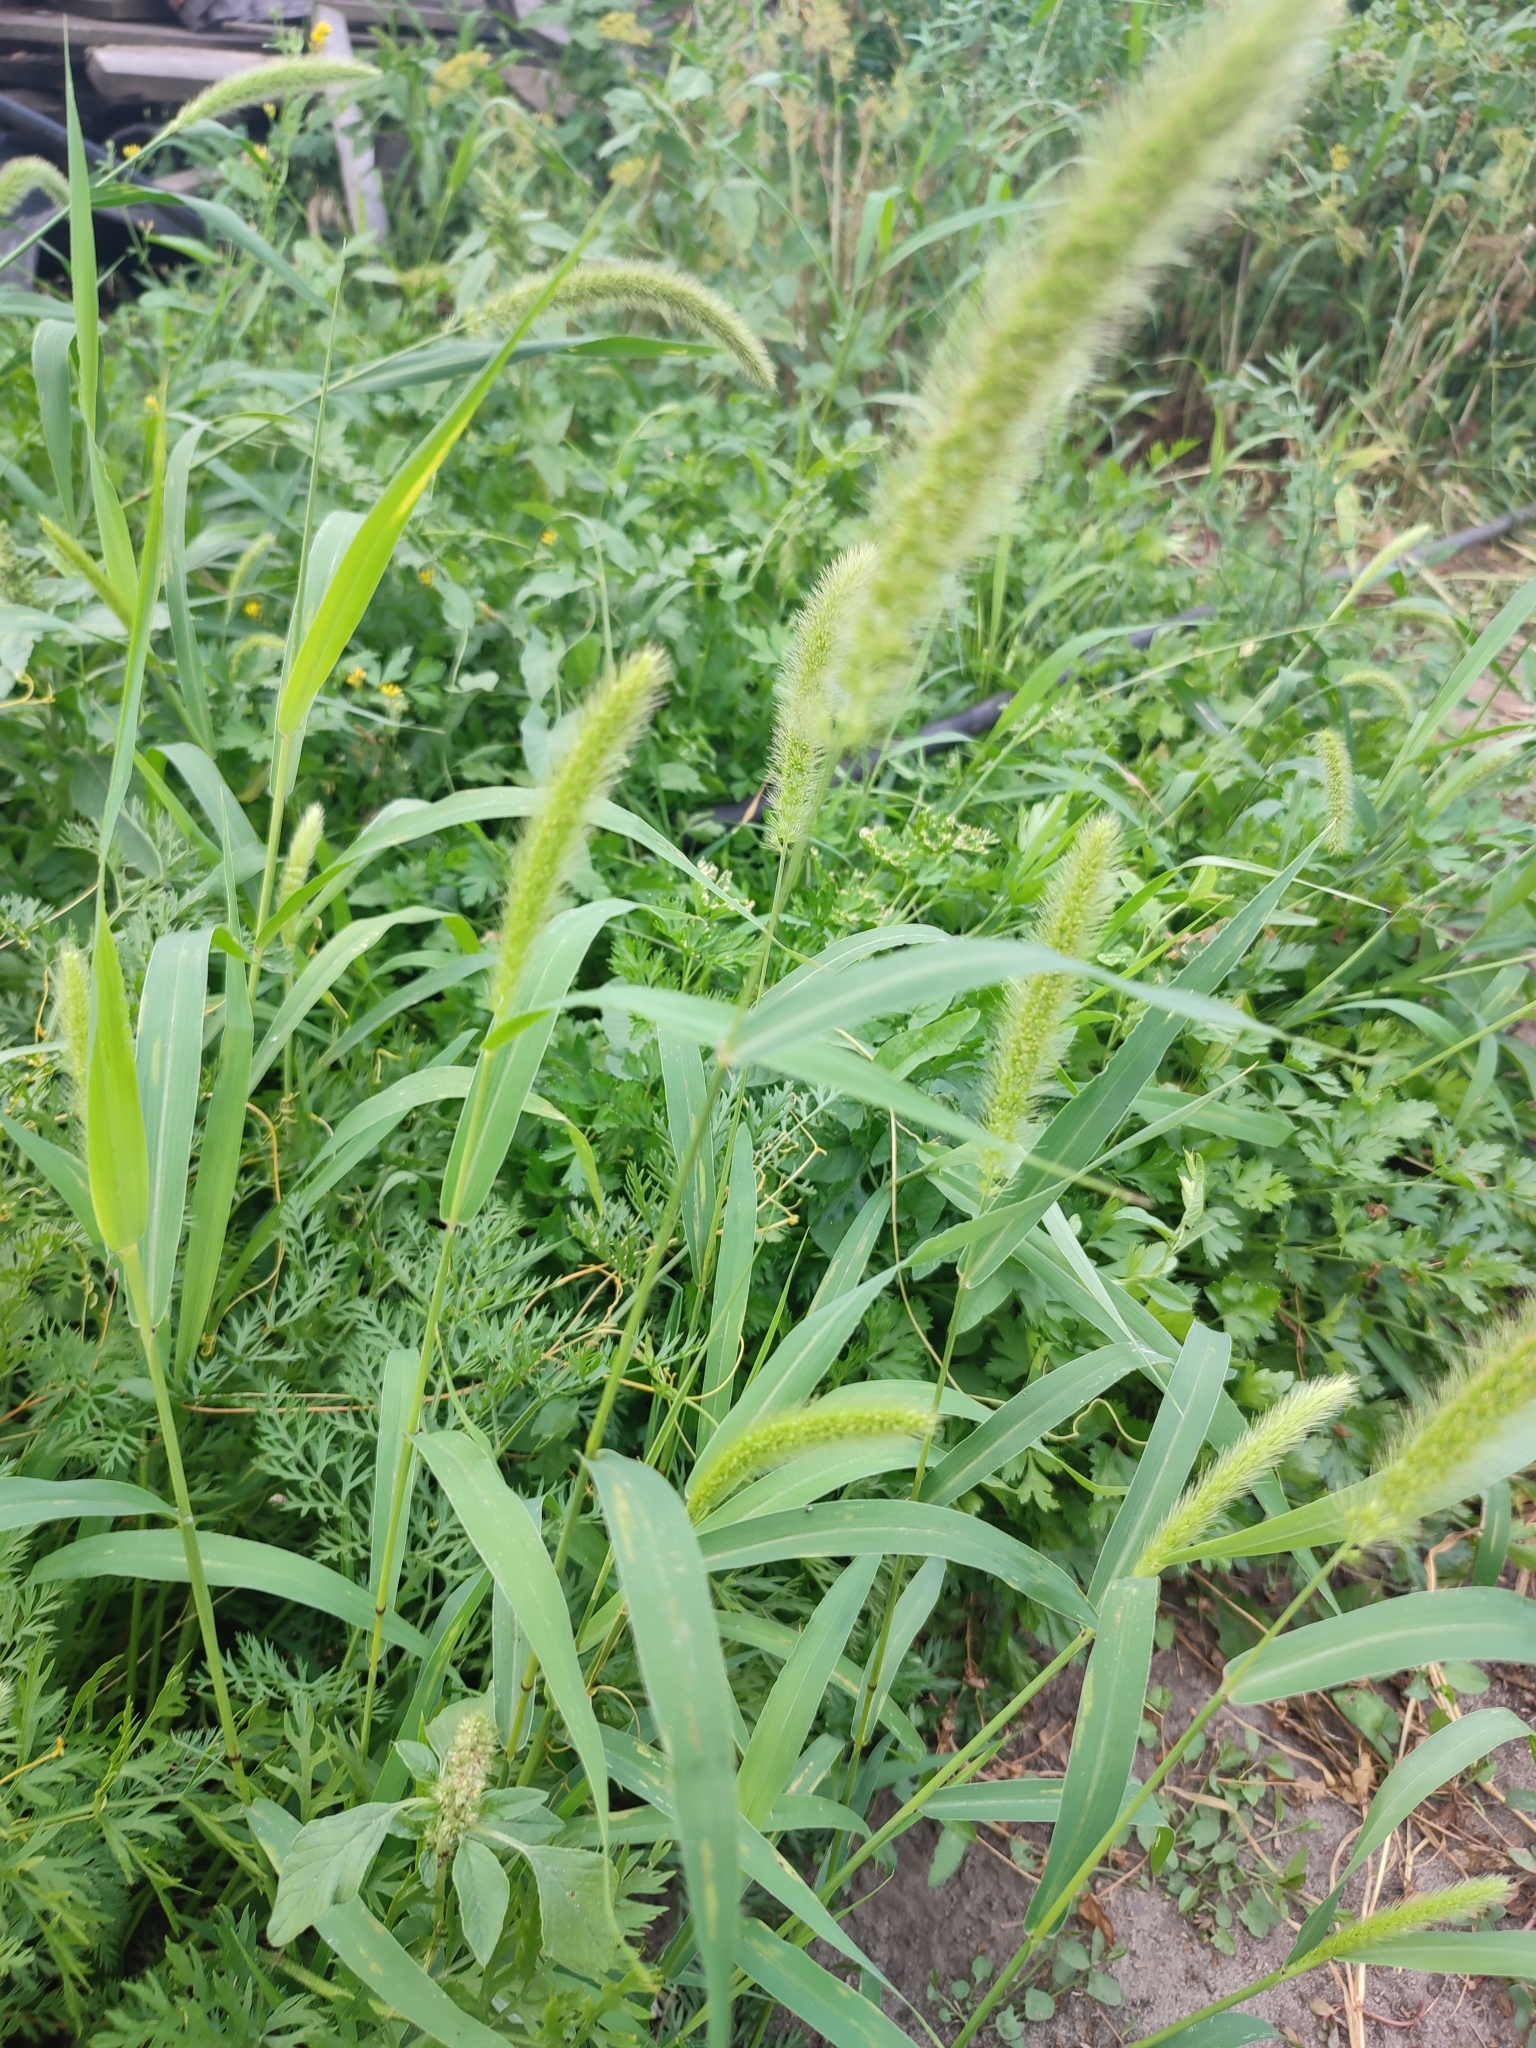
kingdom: Plantae
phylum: Tracheophyta
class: Liliopsida
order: Poales
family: Poaceae
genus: Setaria
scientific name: Setaria viridis
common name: Green bristlegrass
